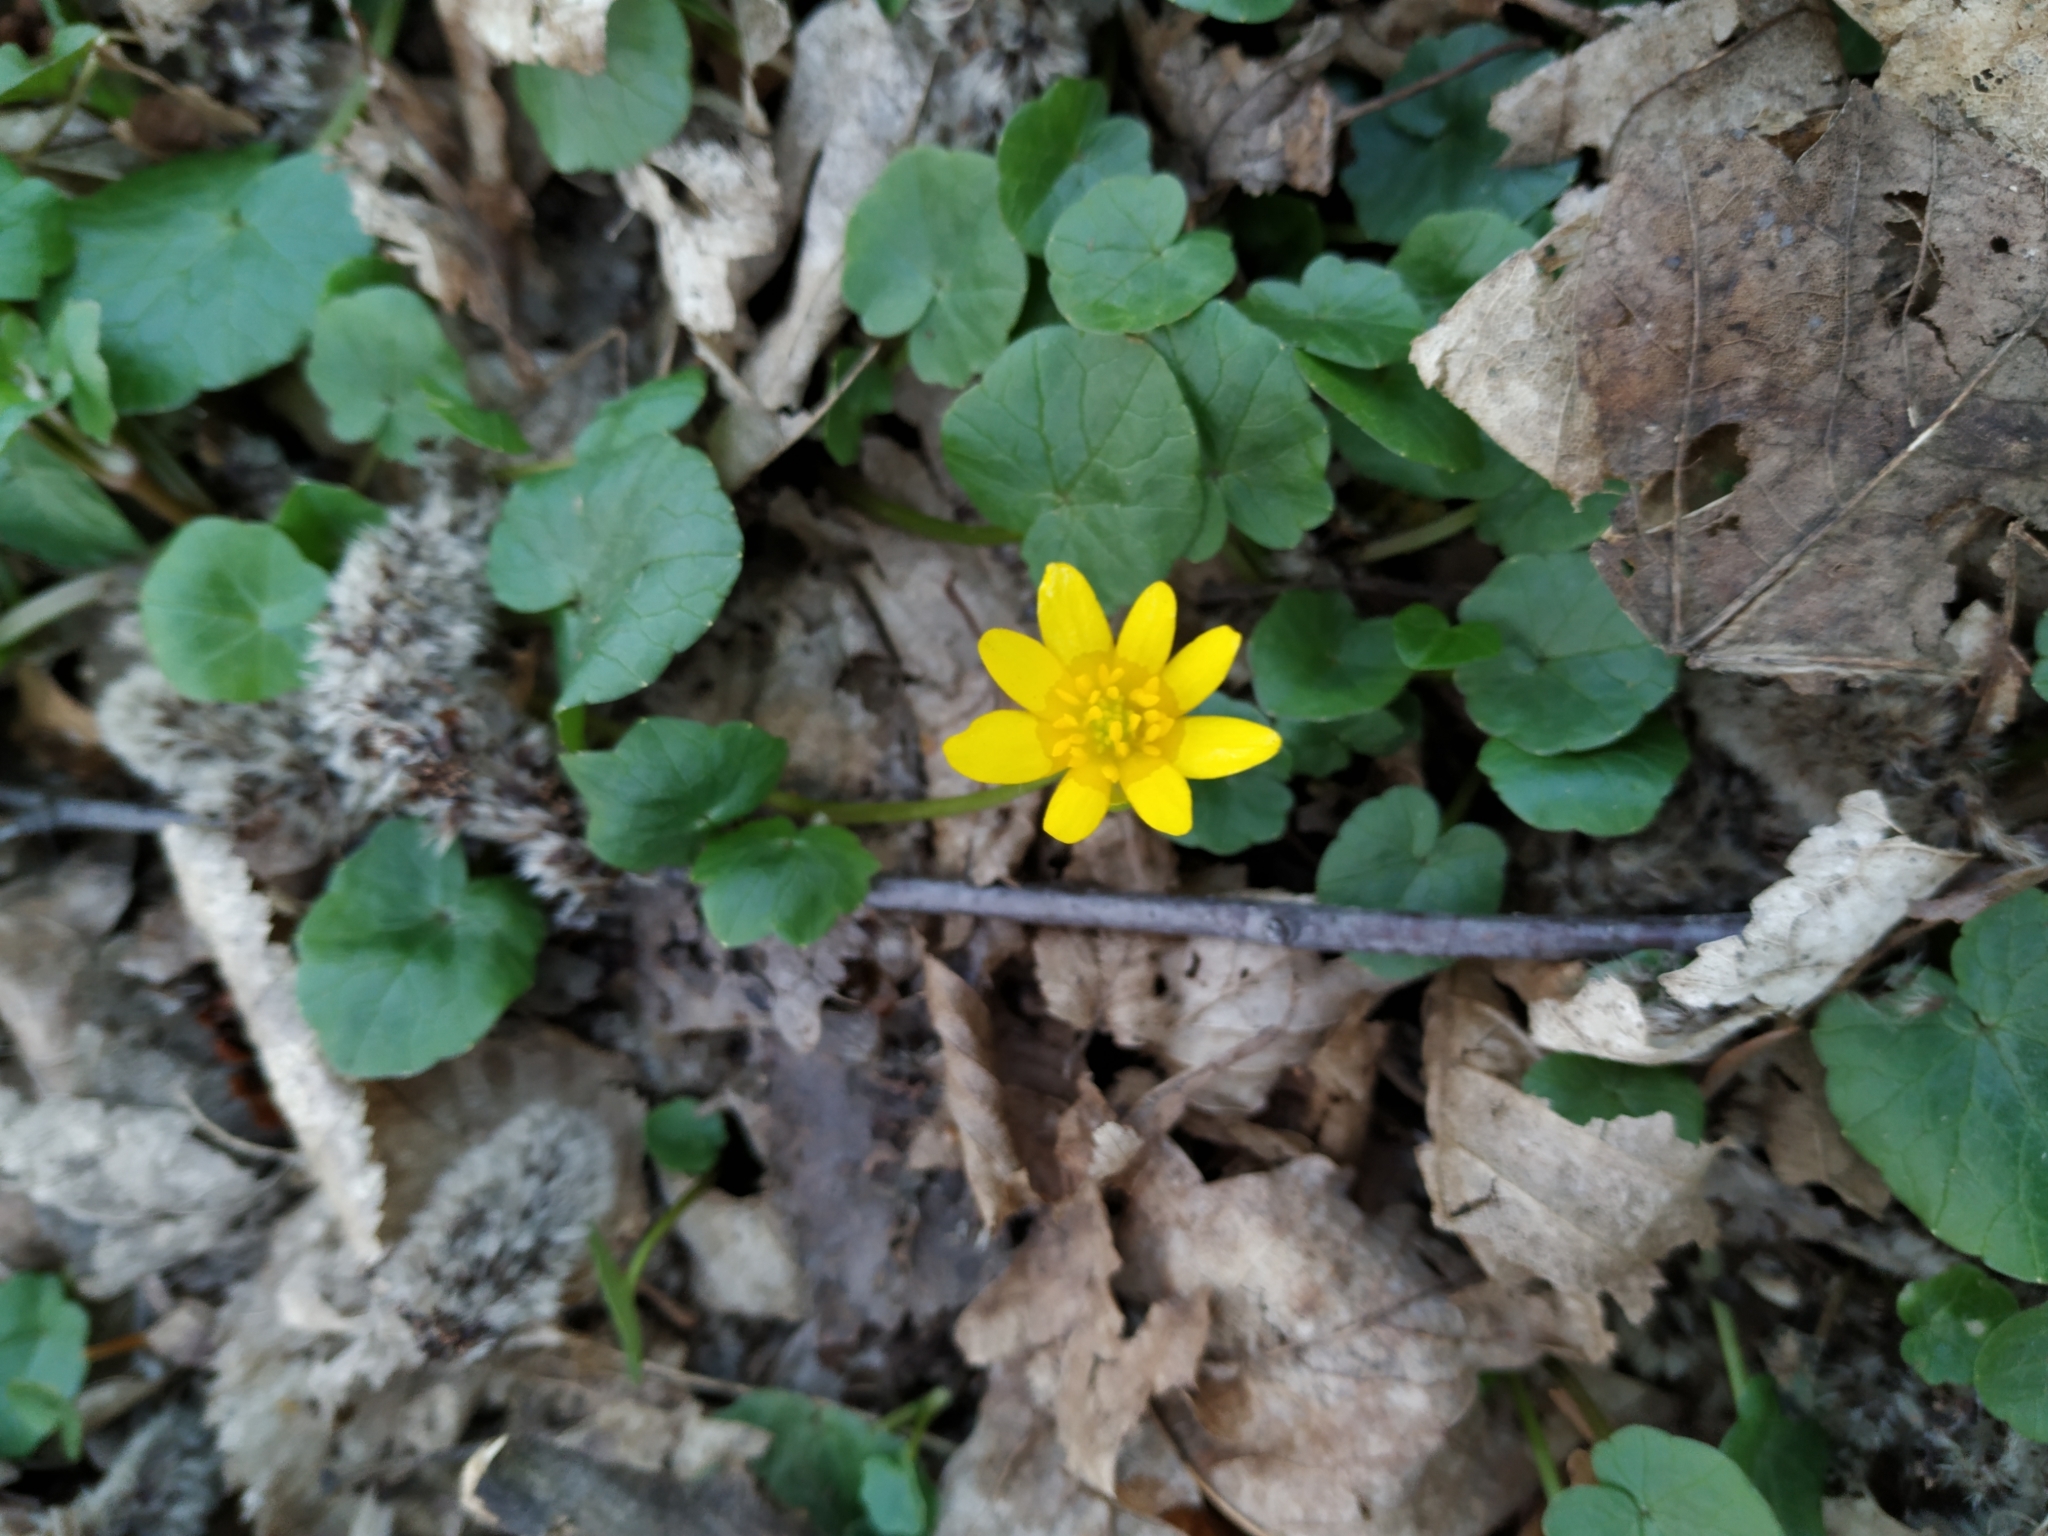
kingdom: Plantae
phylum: Tracheophyta
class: Magnoliopsida
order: Ranunculales
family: Ranunculaceae
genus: Ficaria
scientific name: Ficaria verna
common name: Lesser celandine
